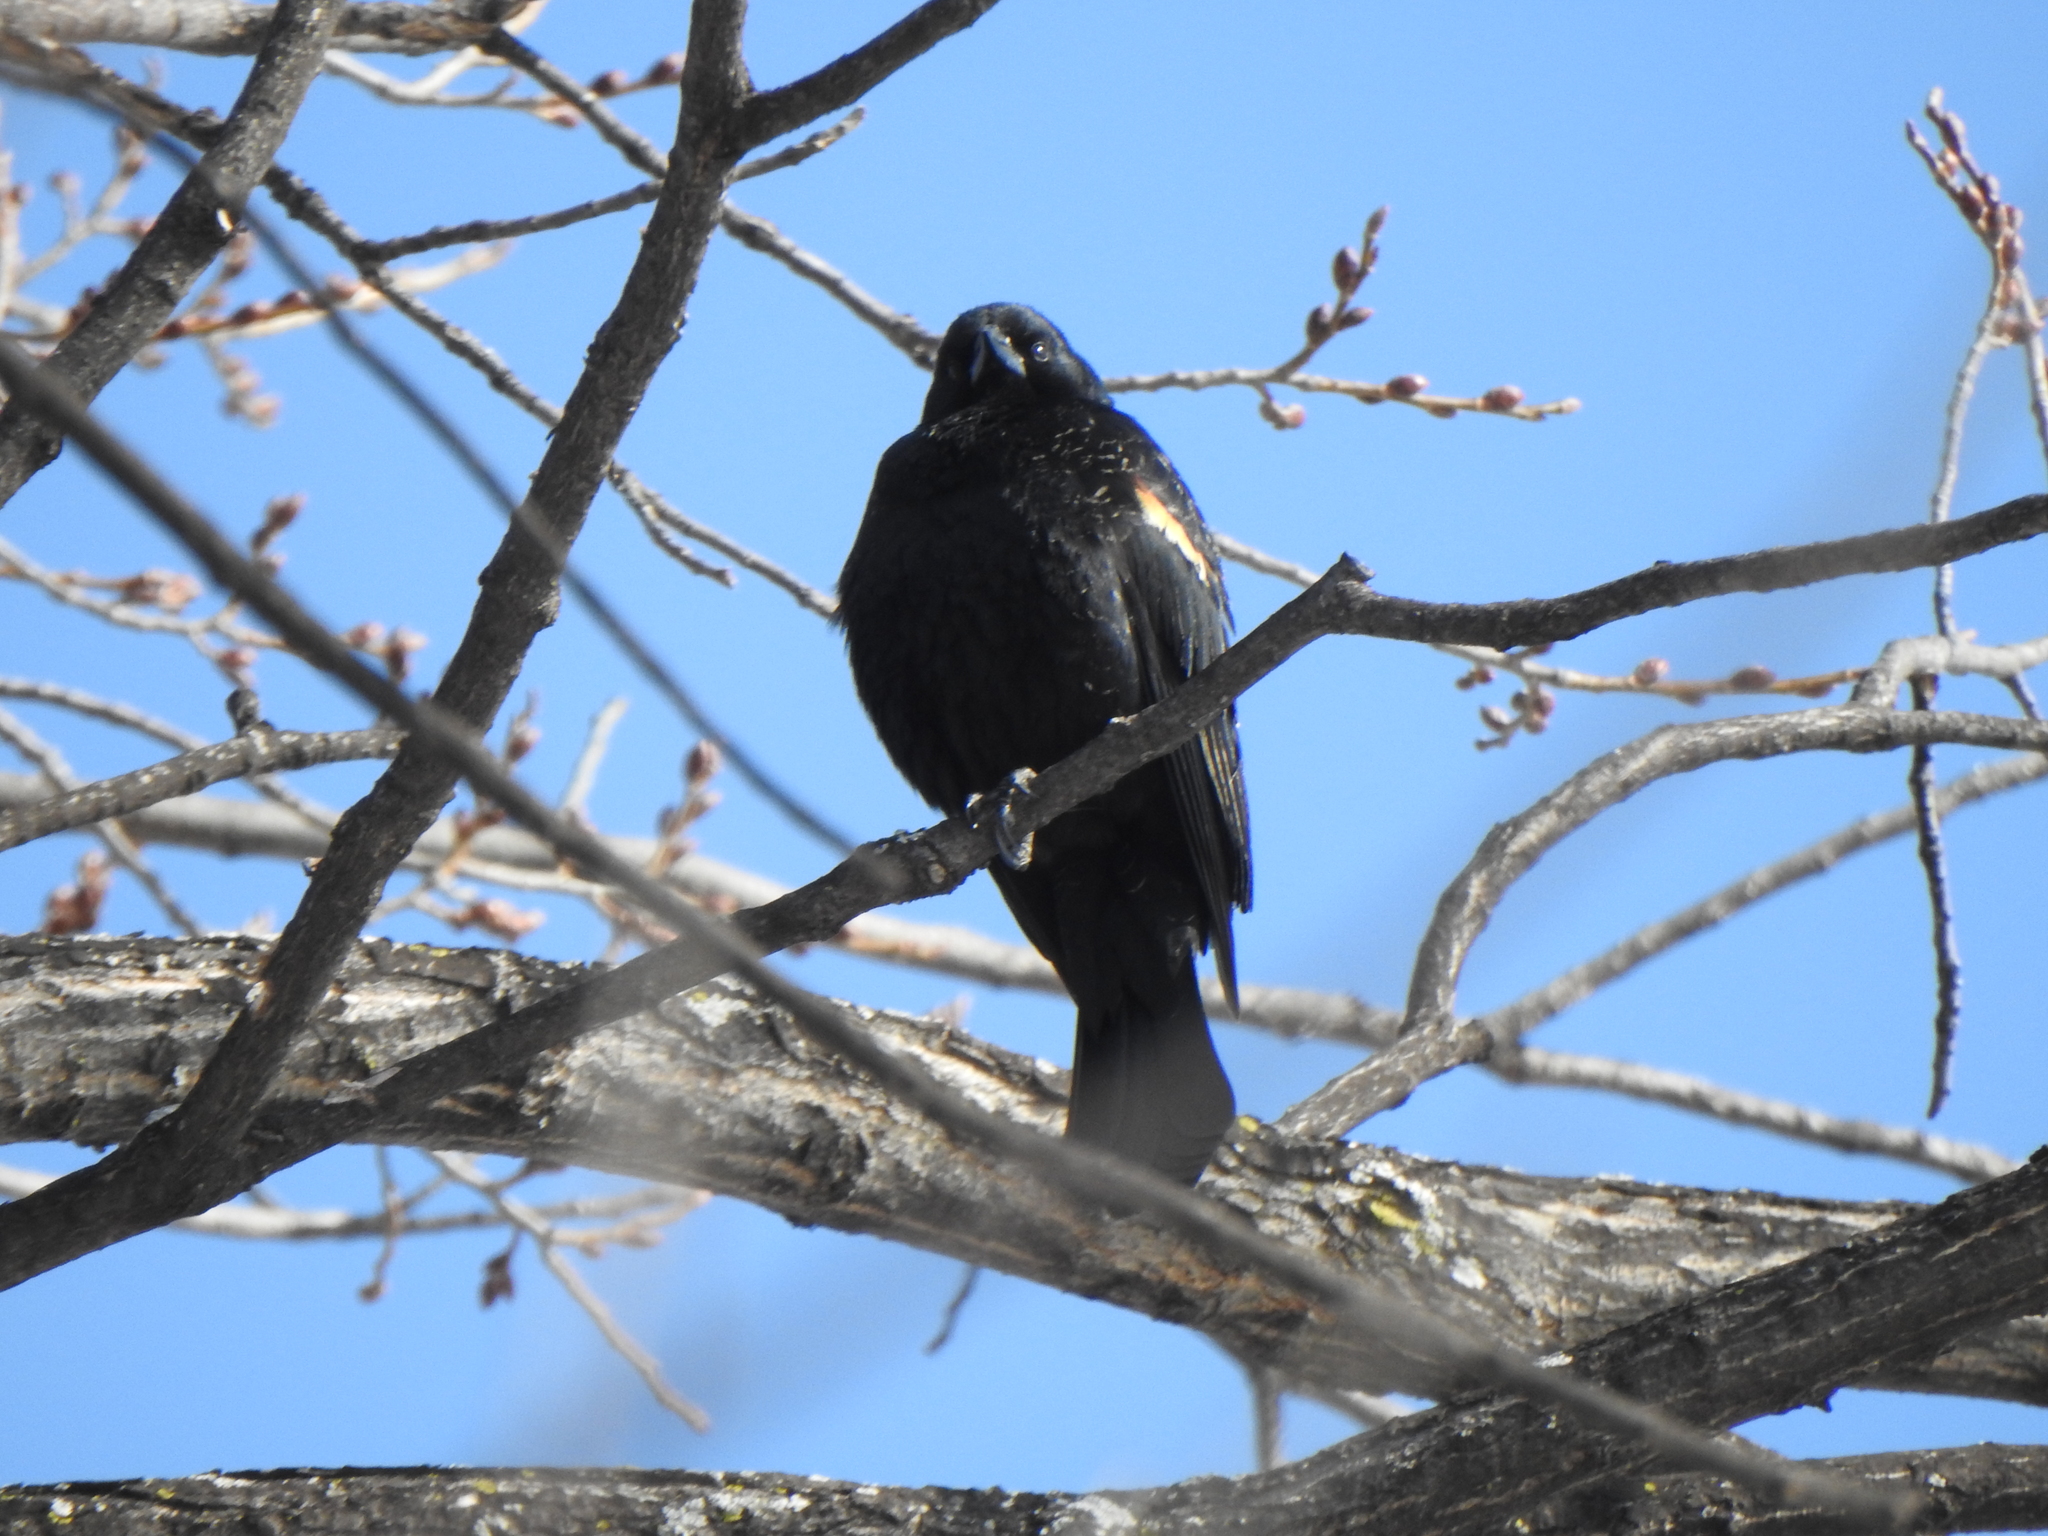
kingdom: Animalia
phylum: Chordata
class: Aves
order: Passeriformes
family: Icteridae
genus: Agelaius
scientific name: Agelaius phoeniceus
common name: Red-winged blackbird
